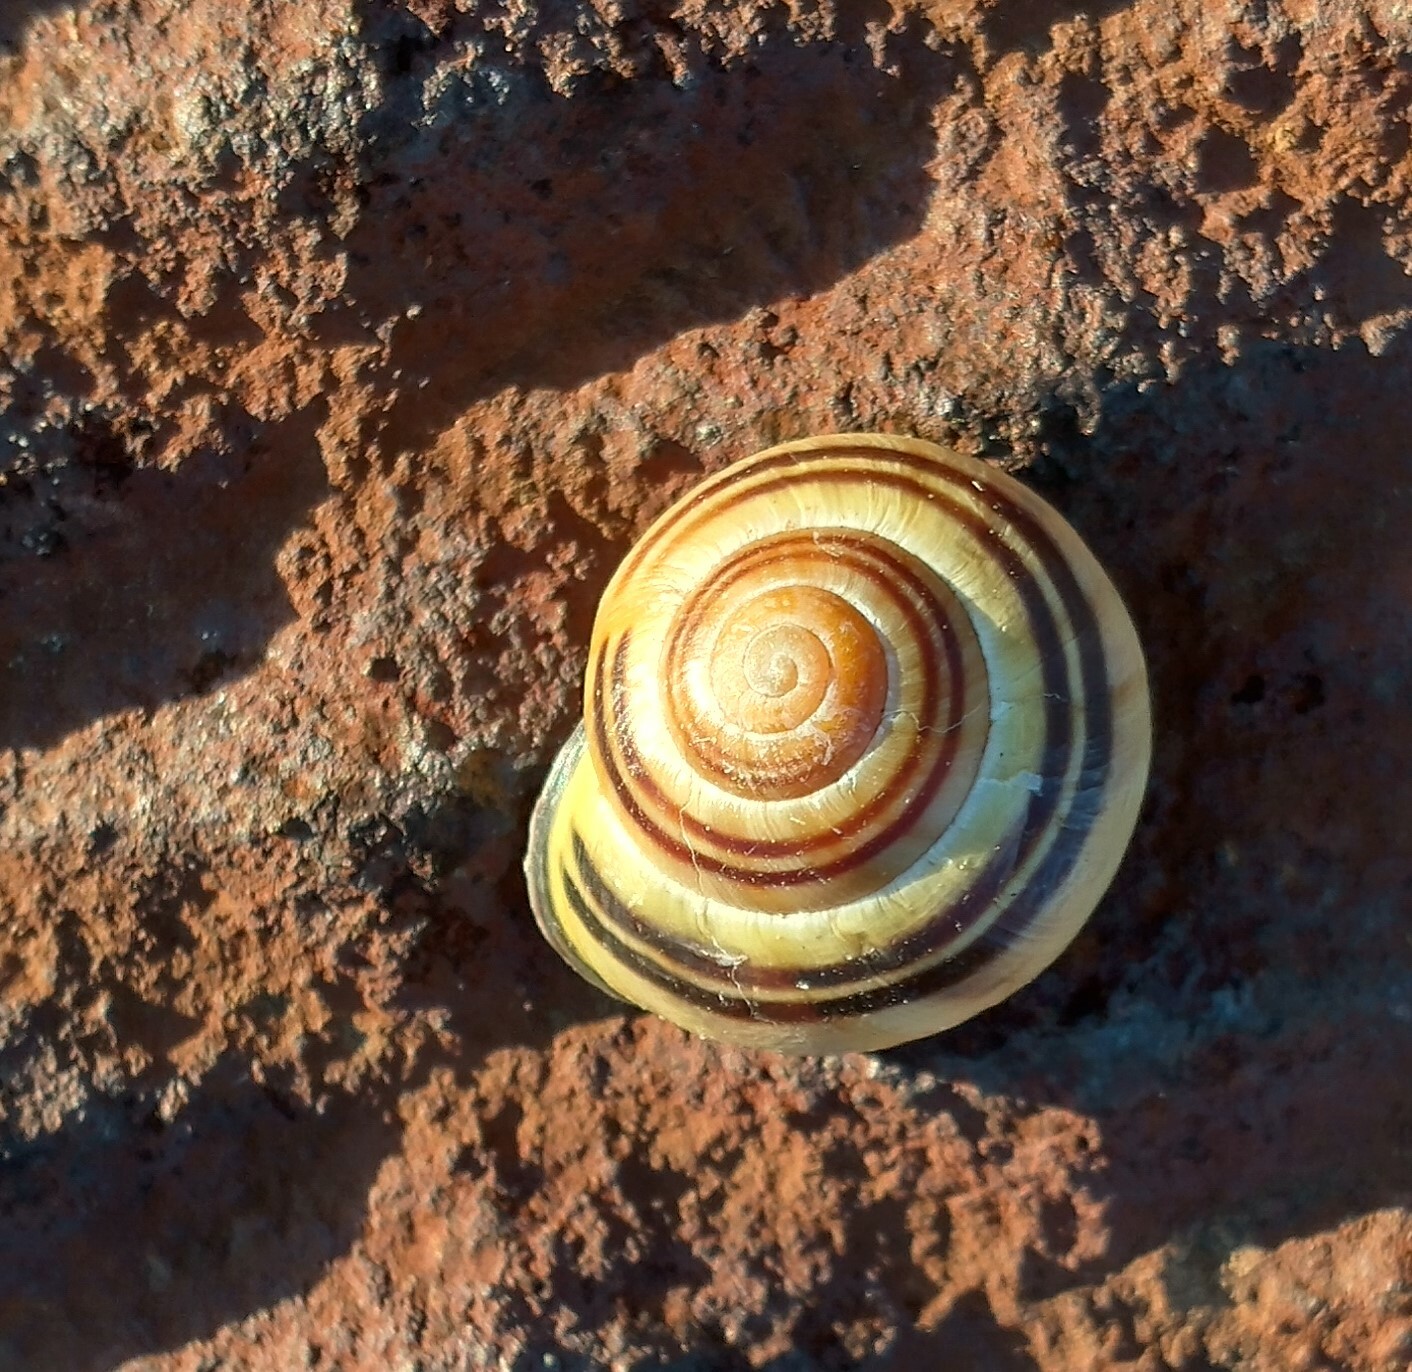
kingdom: Animalia
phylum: Mollusca
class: Gastropoda
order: Stylommatophora
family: Helicidae
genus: Cepaea
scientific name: Cepaea nemoralis
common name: Grovesnail
